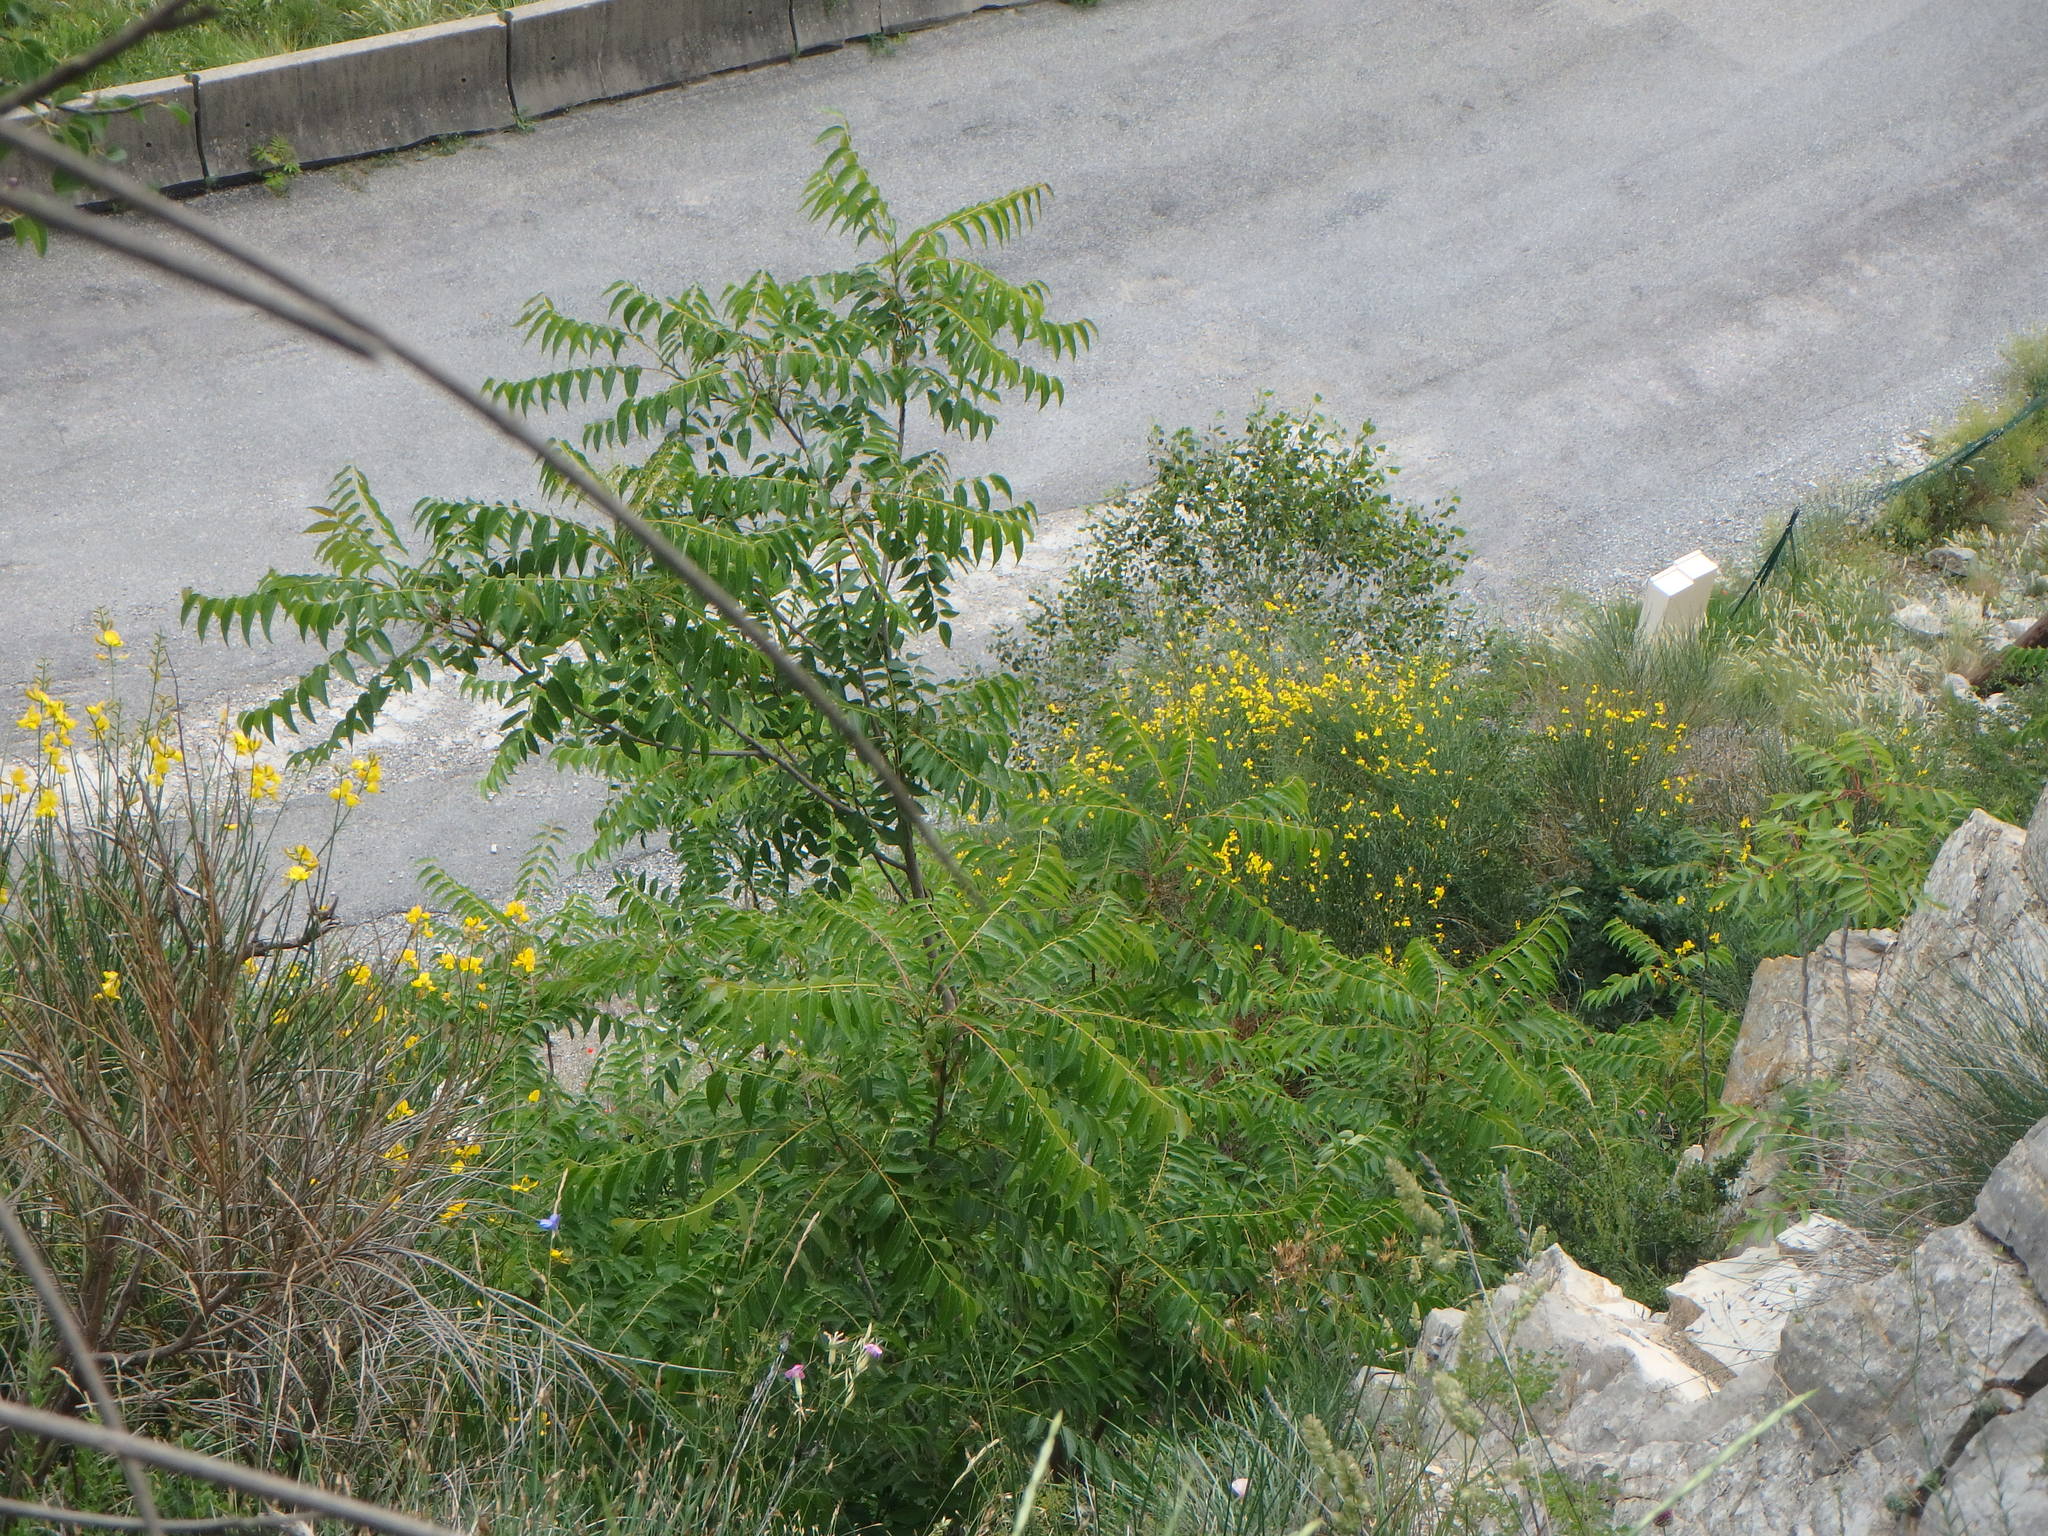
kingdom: Plantae
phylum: Tracheophyta
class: Magnoliopsida
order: Sapindales
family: Simaroubaceae
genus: Ailanthus
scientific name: Ailanthus altissima
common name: Tree-of-heaven
